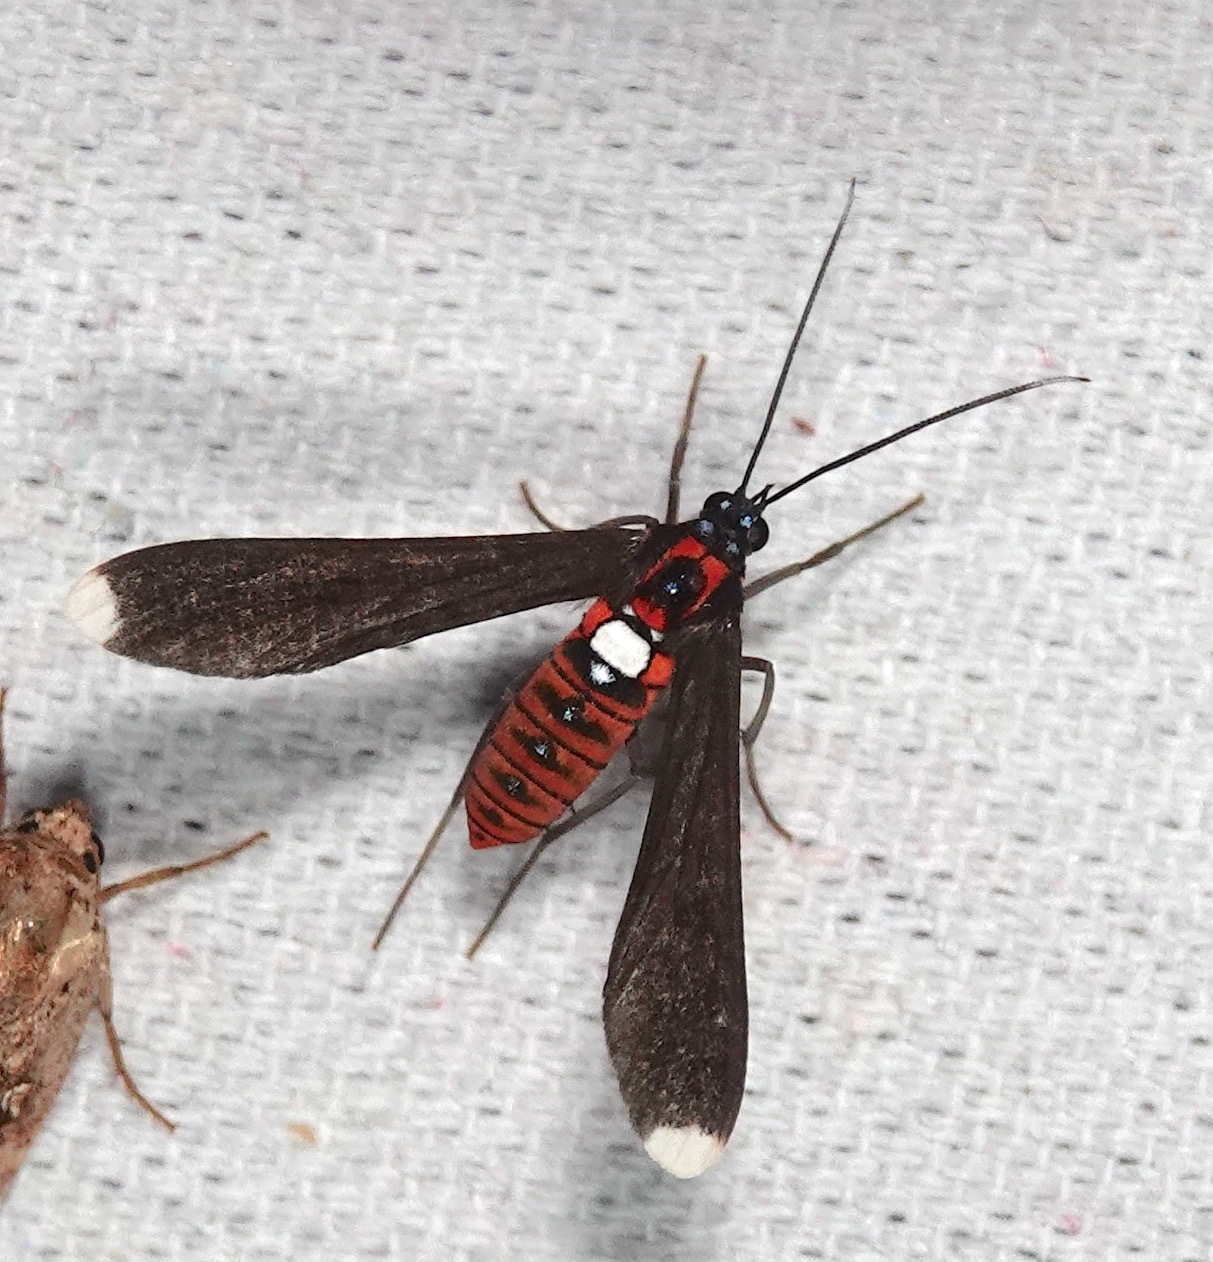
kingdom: Animalia
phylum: Arthropoda
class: Insecta
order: Lepidoptera
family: Erebidae
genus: Horamella
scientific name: Horamella fassli
